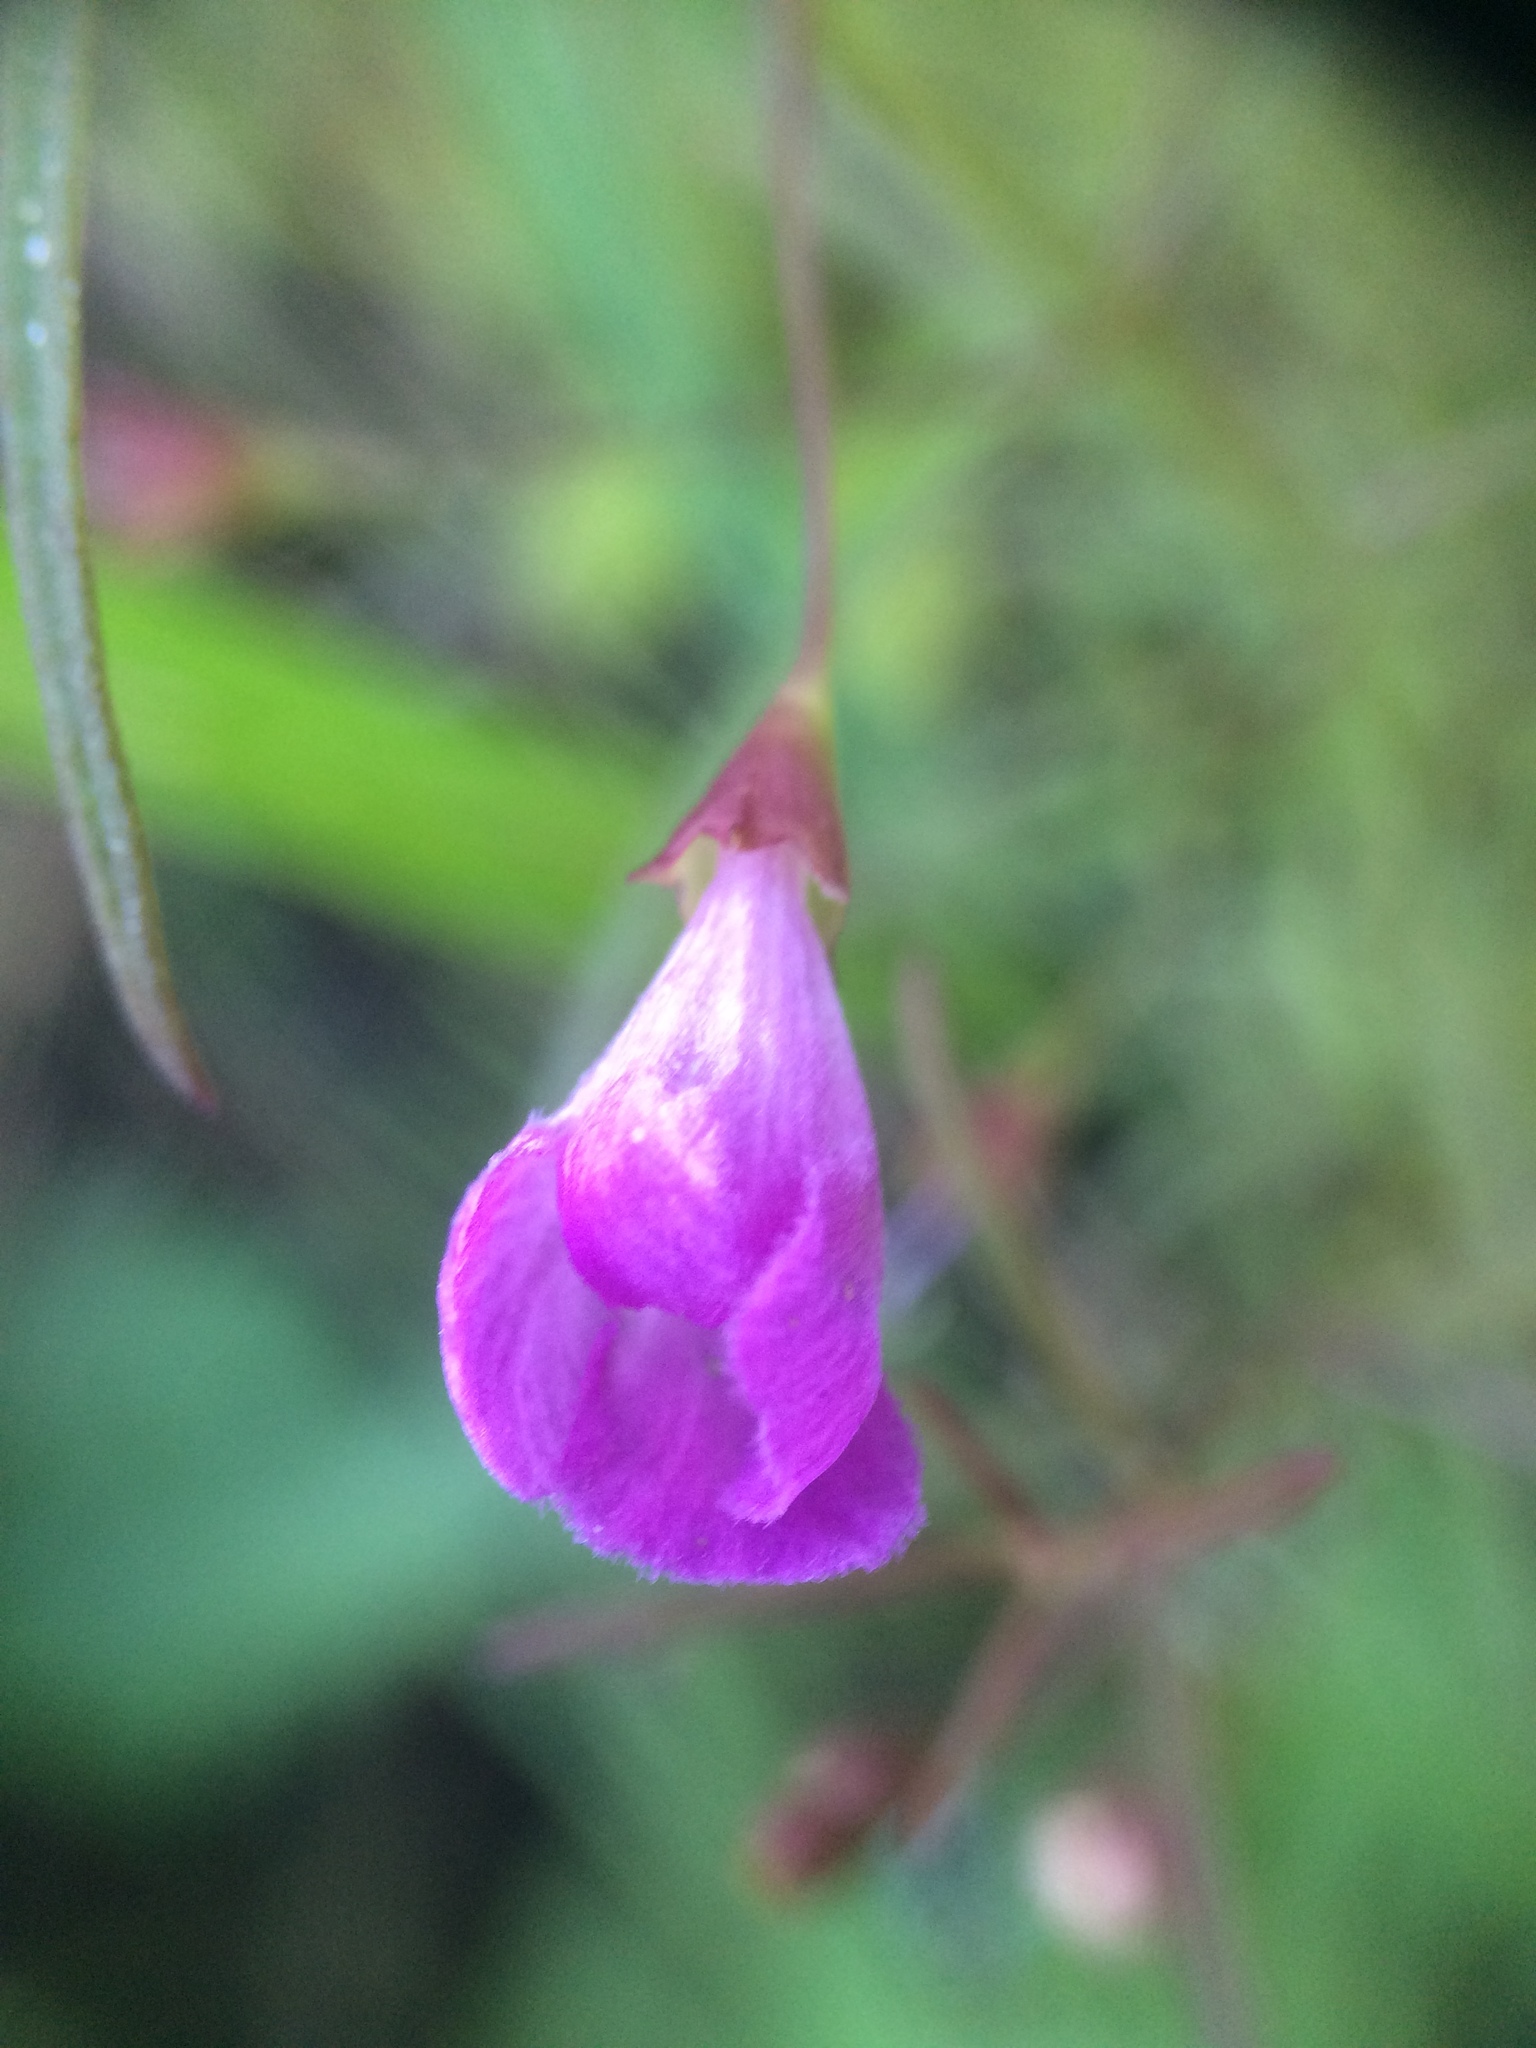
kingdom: Plantae
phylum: Tracheophyta
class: Magnoliopsida
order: Lamiales
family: Orobanchaceae
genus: Agalinis
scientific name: Agalinis tenuifolia
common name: Slender agalinis
